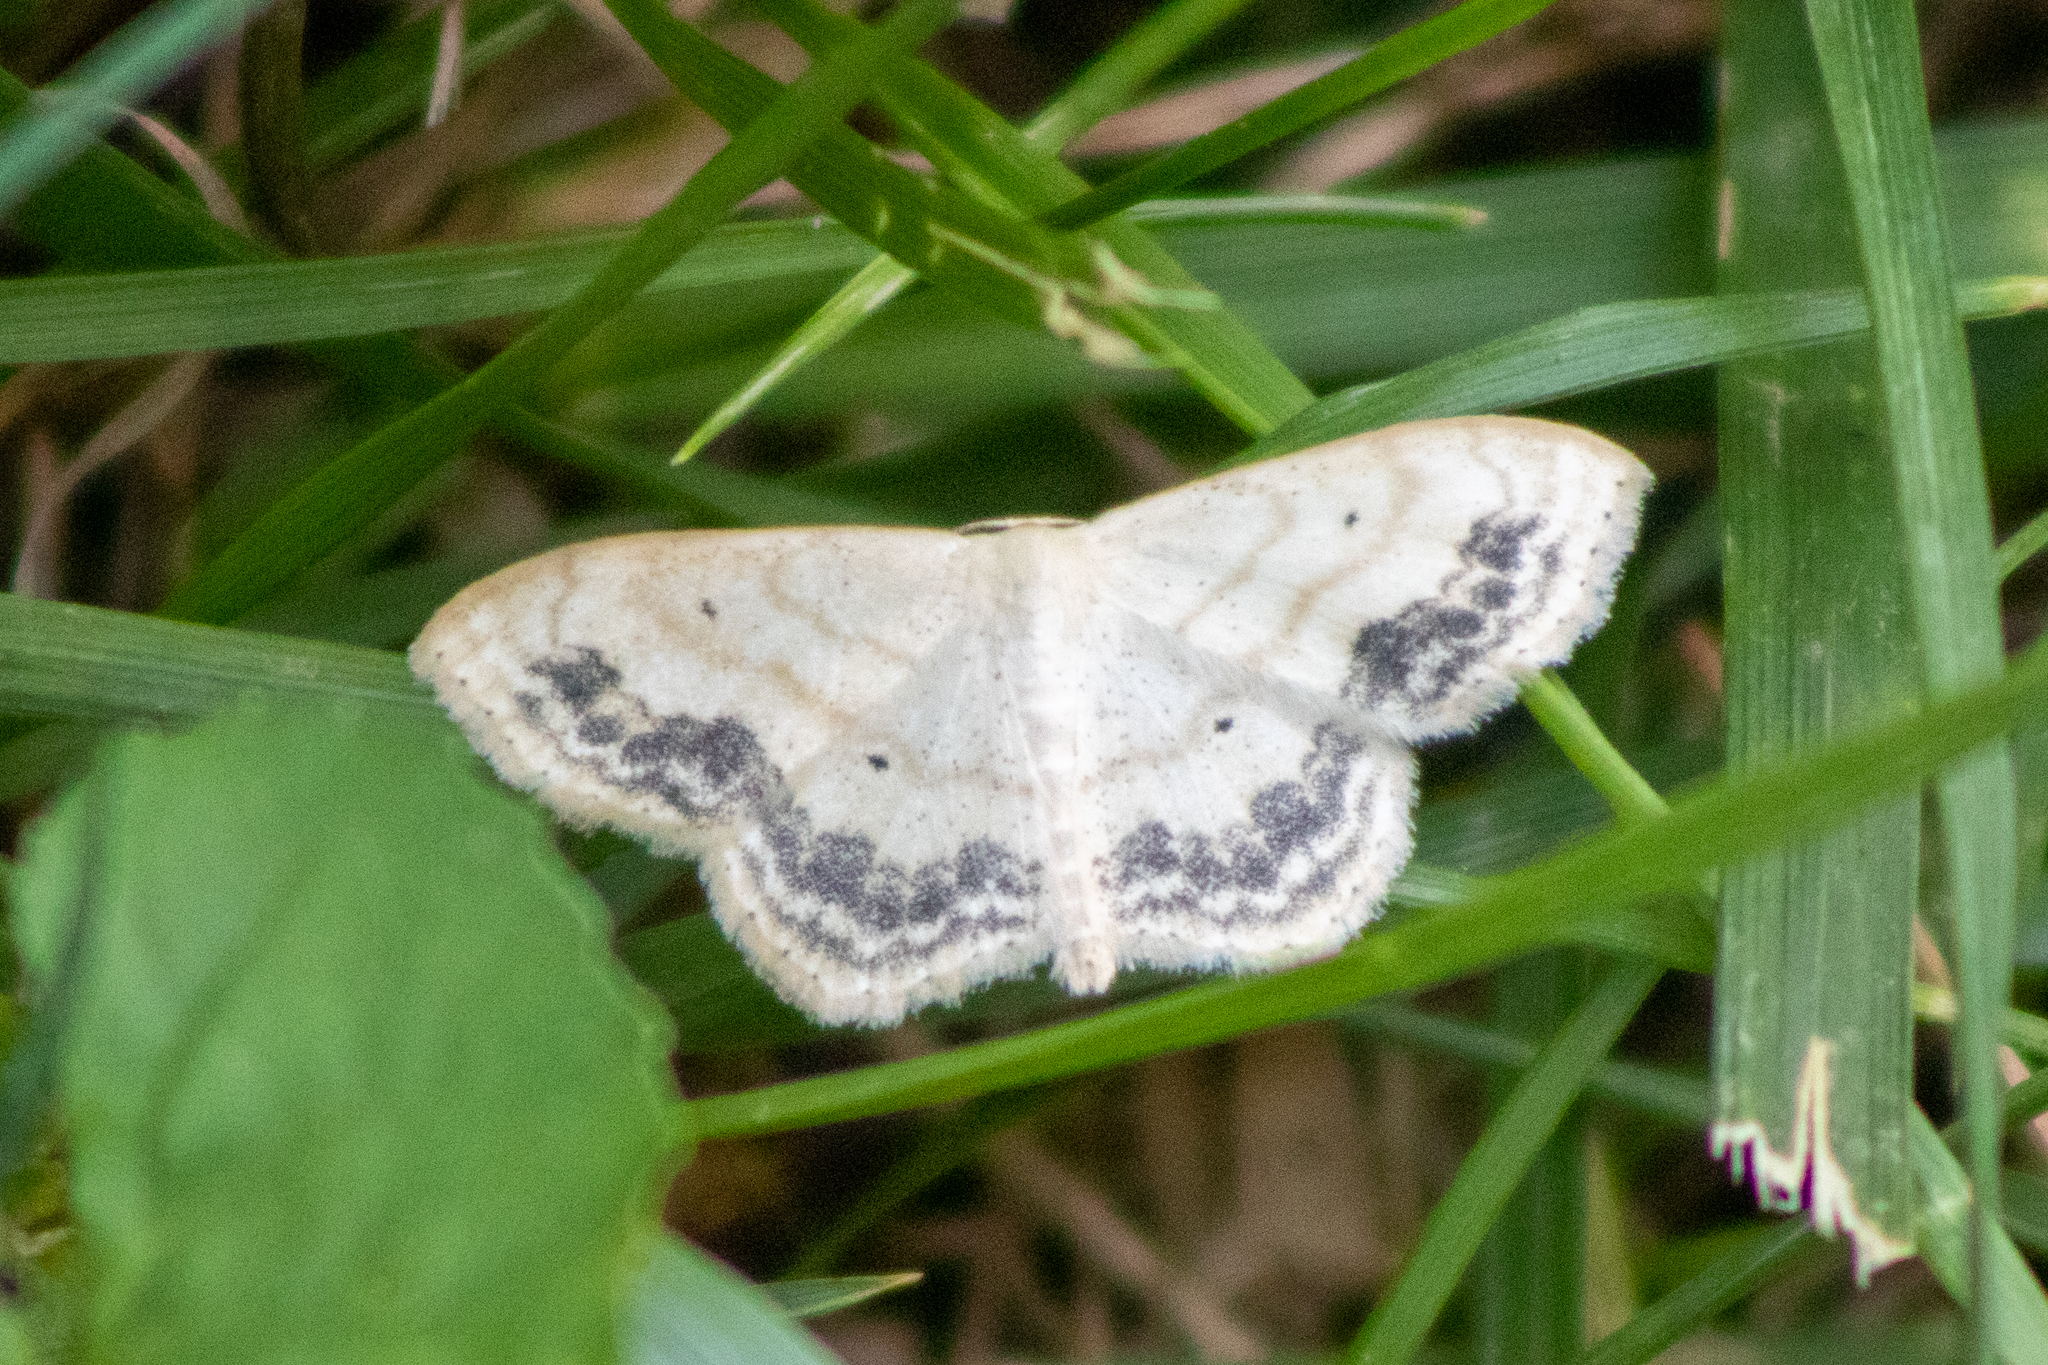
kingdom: Animalia
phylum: Arthropoda
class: Insecta
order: Lepidoptera
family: Geometridae
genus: Scopula
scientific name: Scopula limboundata
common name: Large lace border
